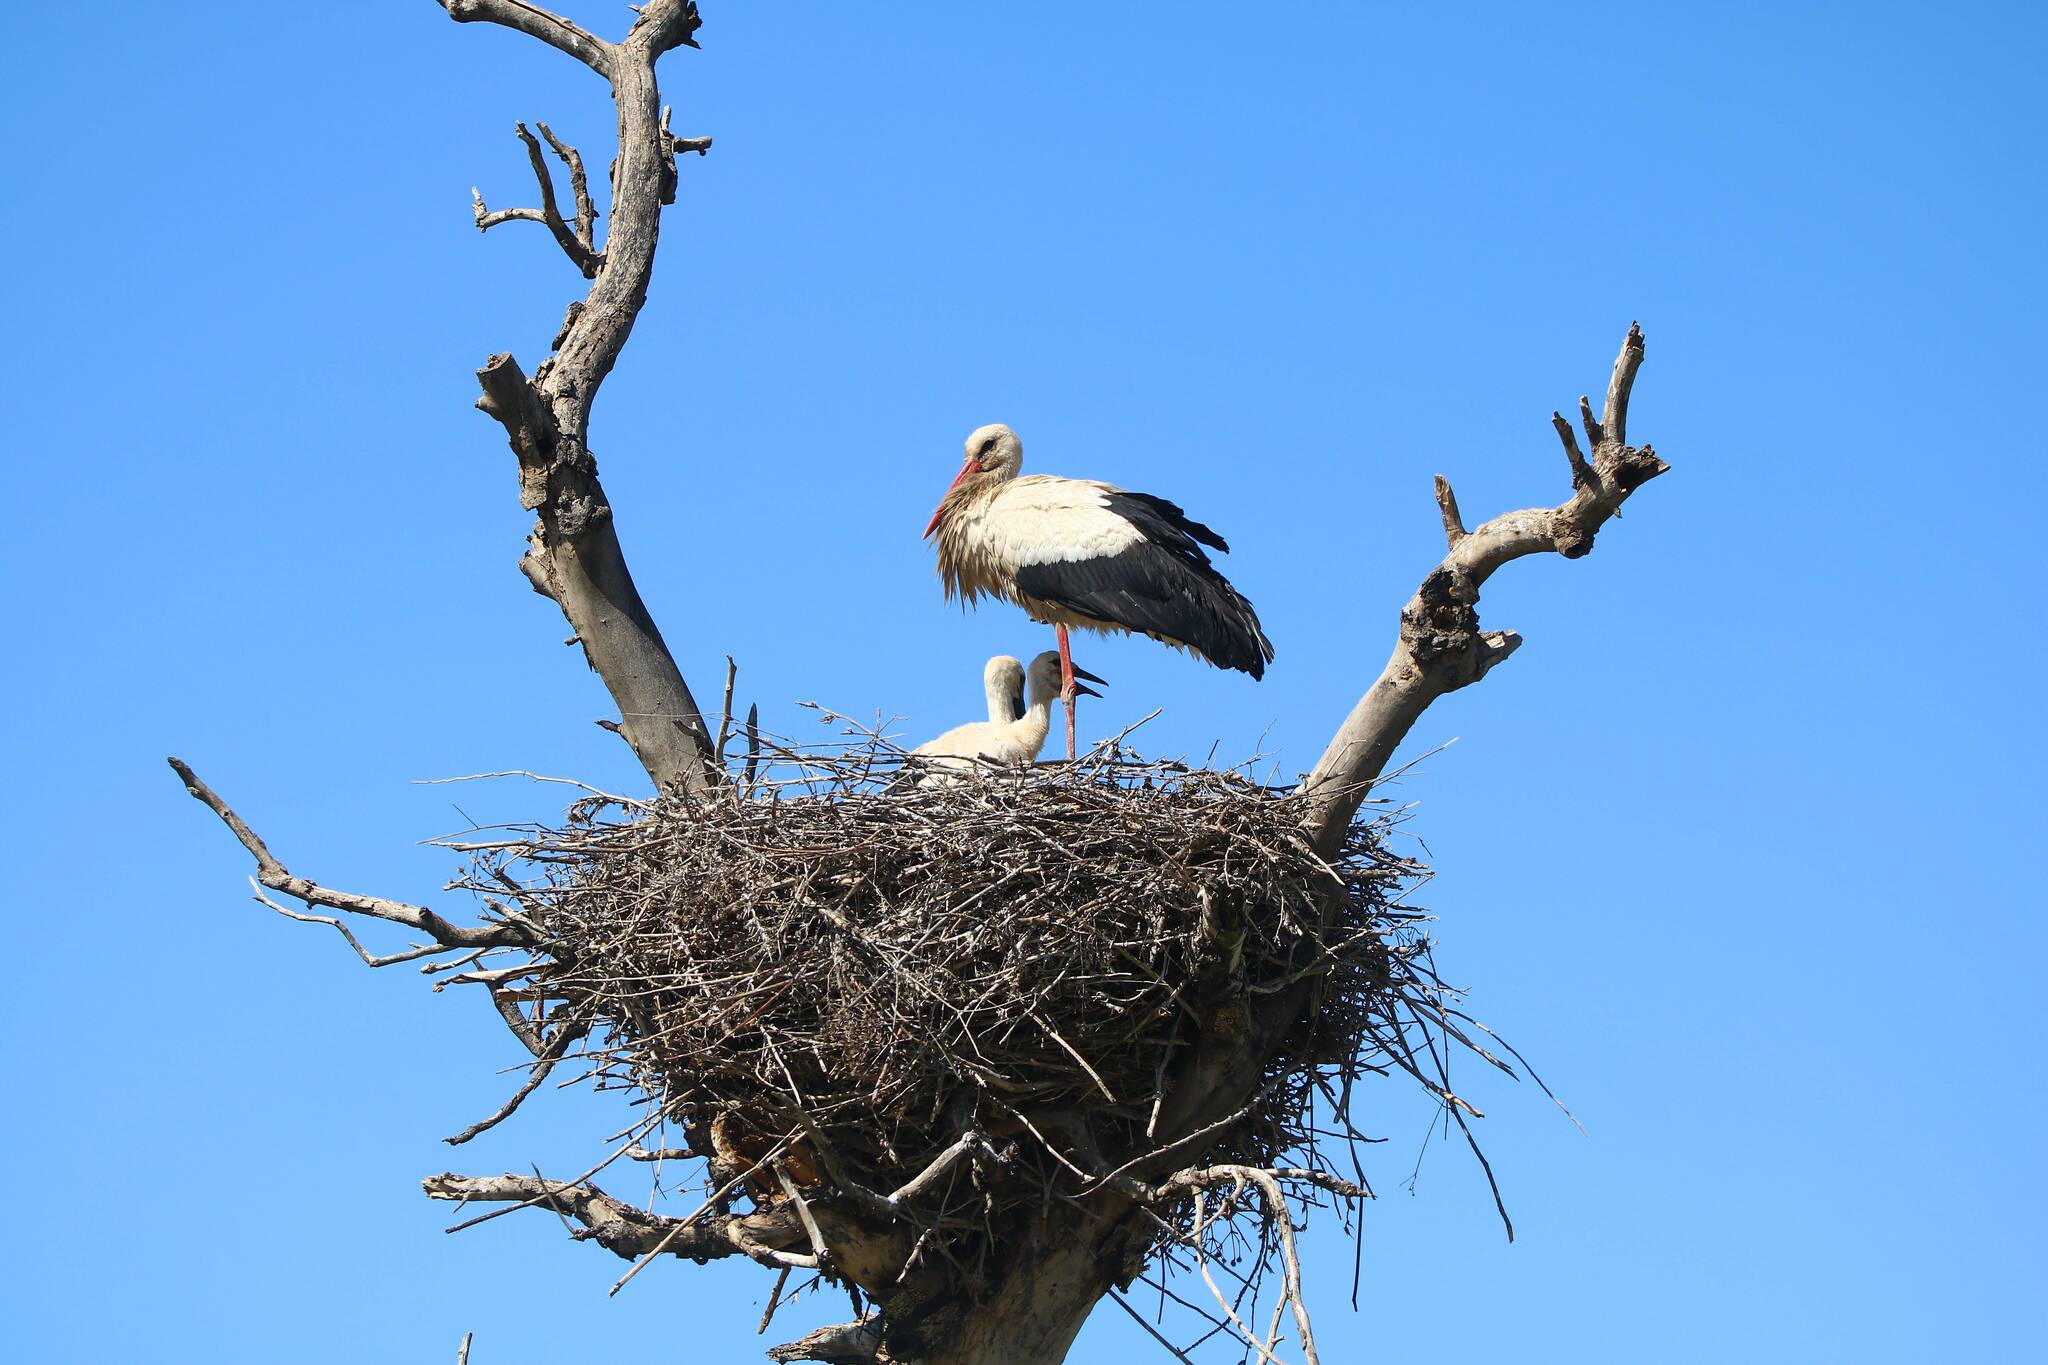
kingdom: Animalia
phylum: Chordata
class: Aves
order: Ciconiiformes
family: Ciconiidae
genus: Ciconia
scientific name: Ciconia ciconia
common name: White stork
